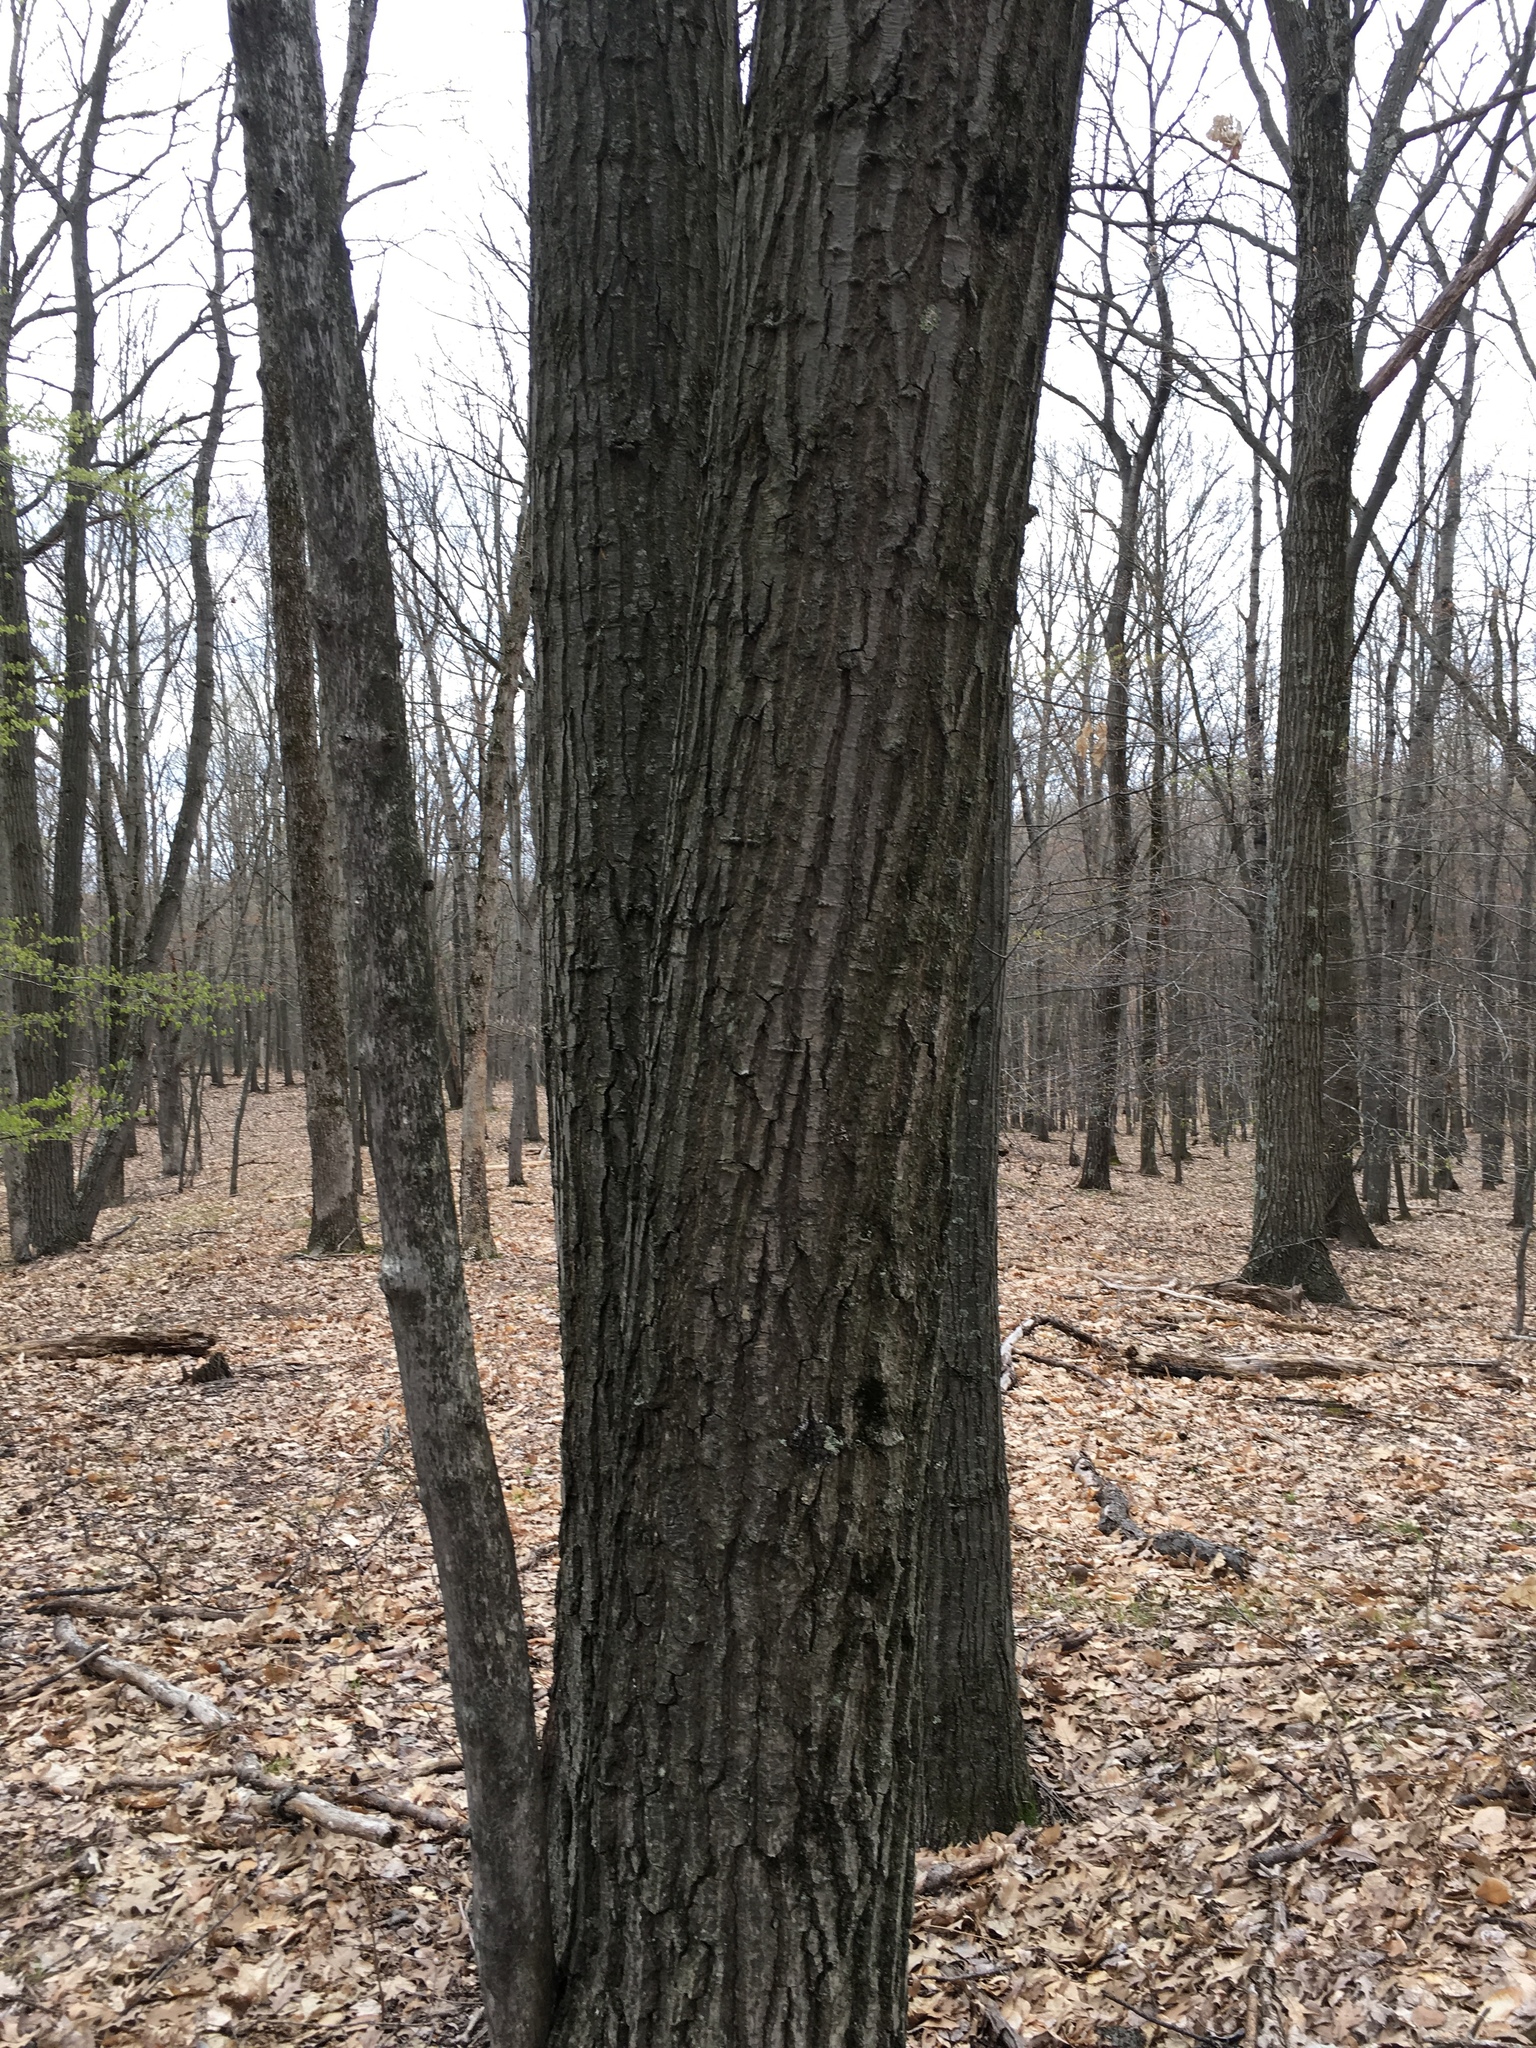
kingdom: Plantae
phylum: Tracheophyta
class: Magnoliopsida
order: Fagales
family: Fagaceae
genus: Quercus
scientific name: Quercus rubra
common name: Red oak
